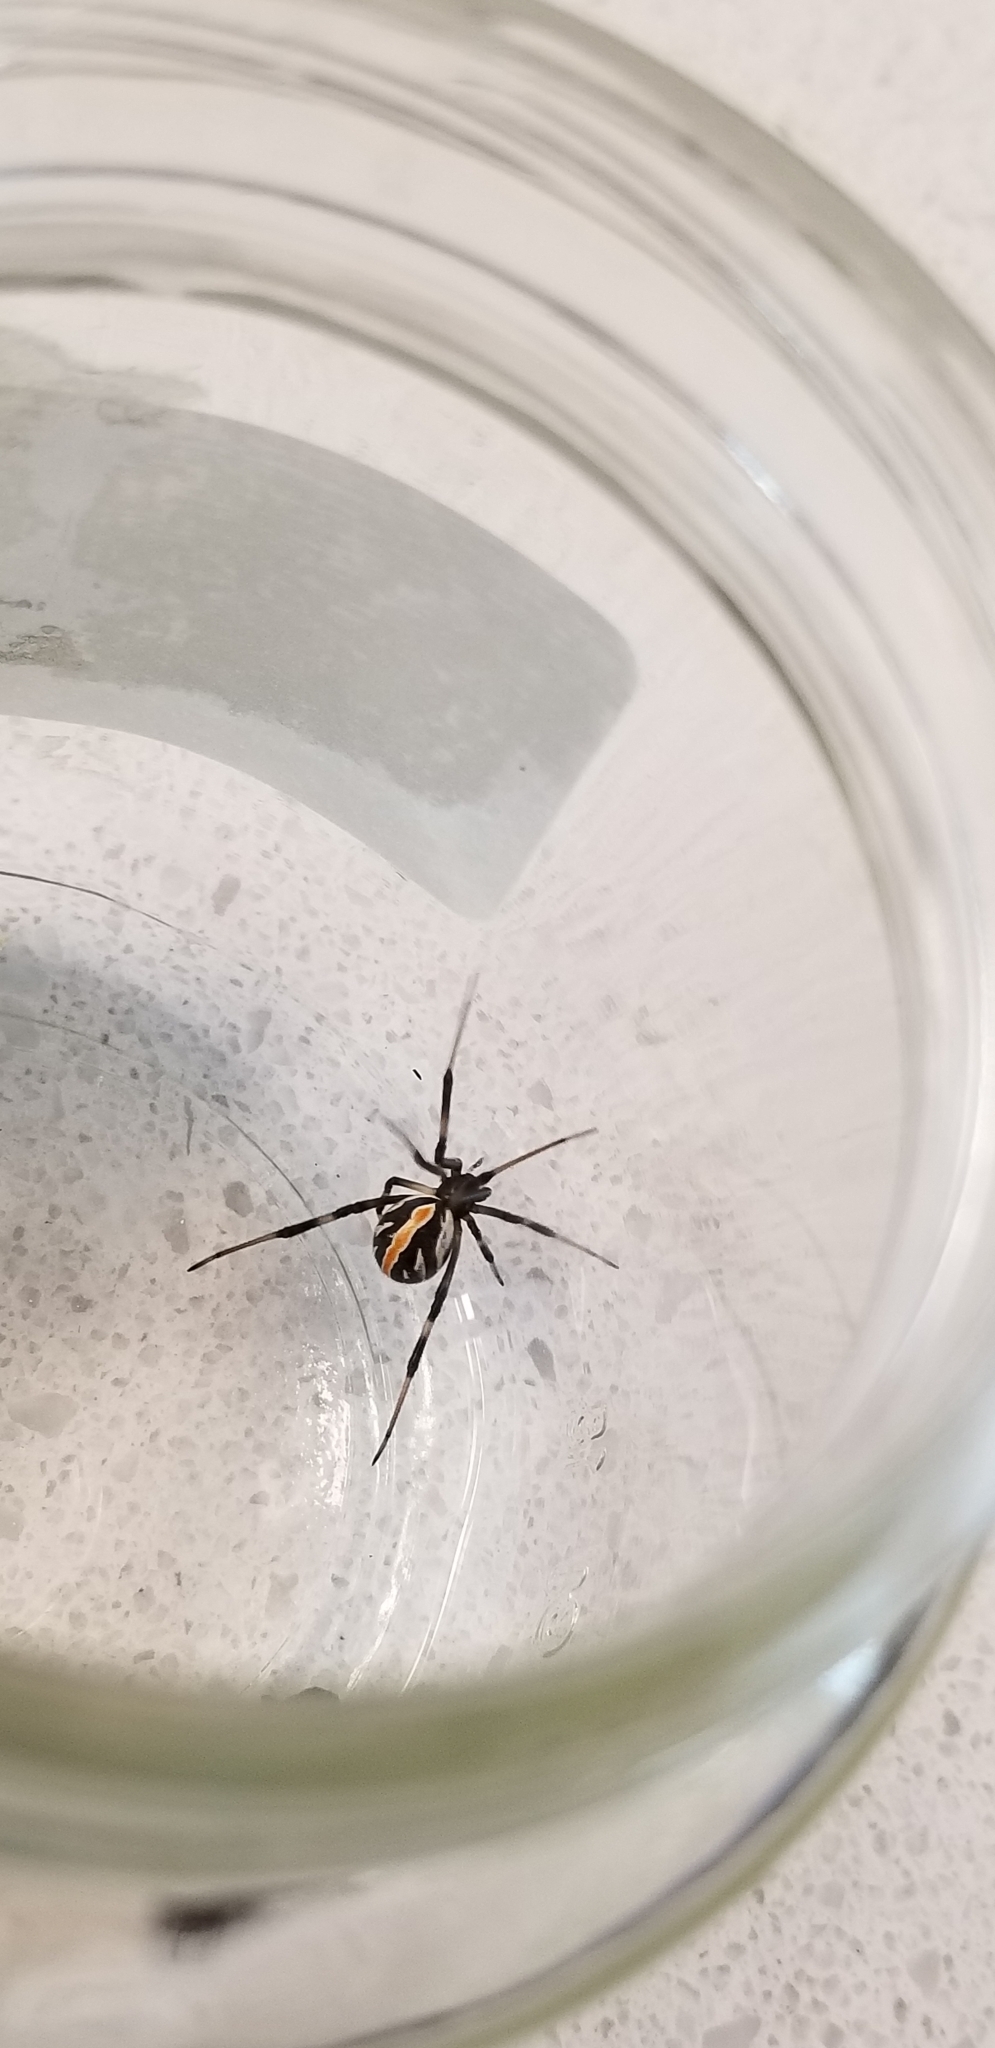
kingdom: Animalia
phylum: Arthropoda
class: Arachnida
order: Araneae
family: Theridiidae
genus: Latrodectus
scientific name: Latrodectus hesperus
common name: Western black widow
